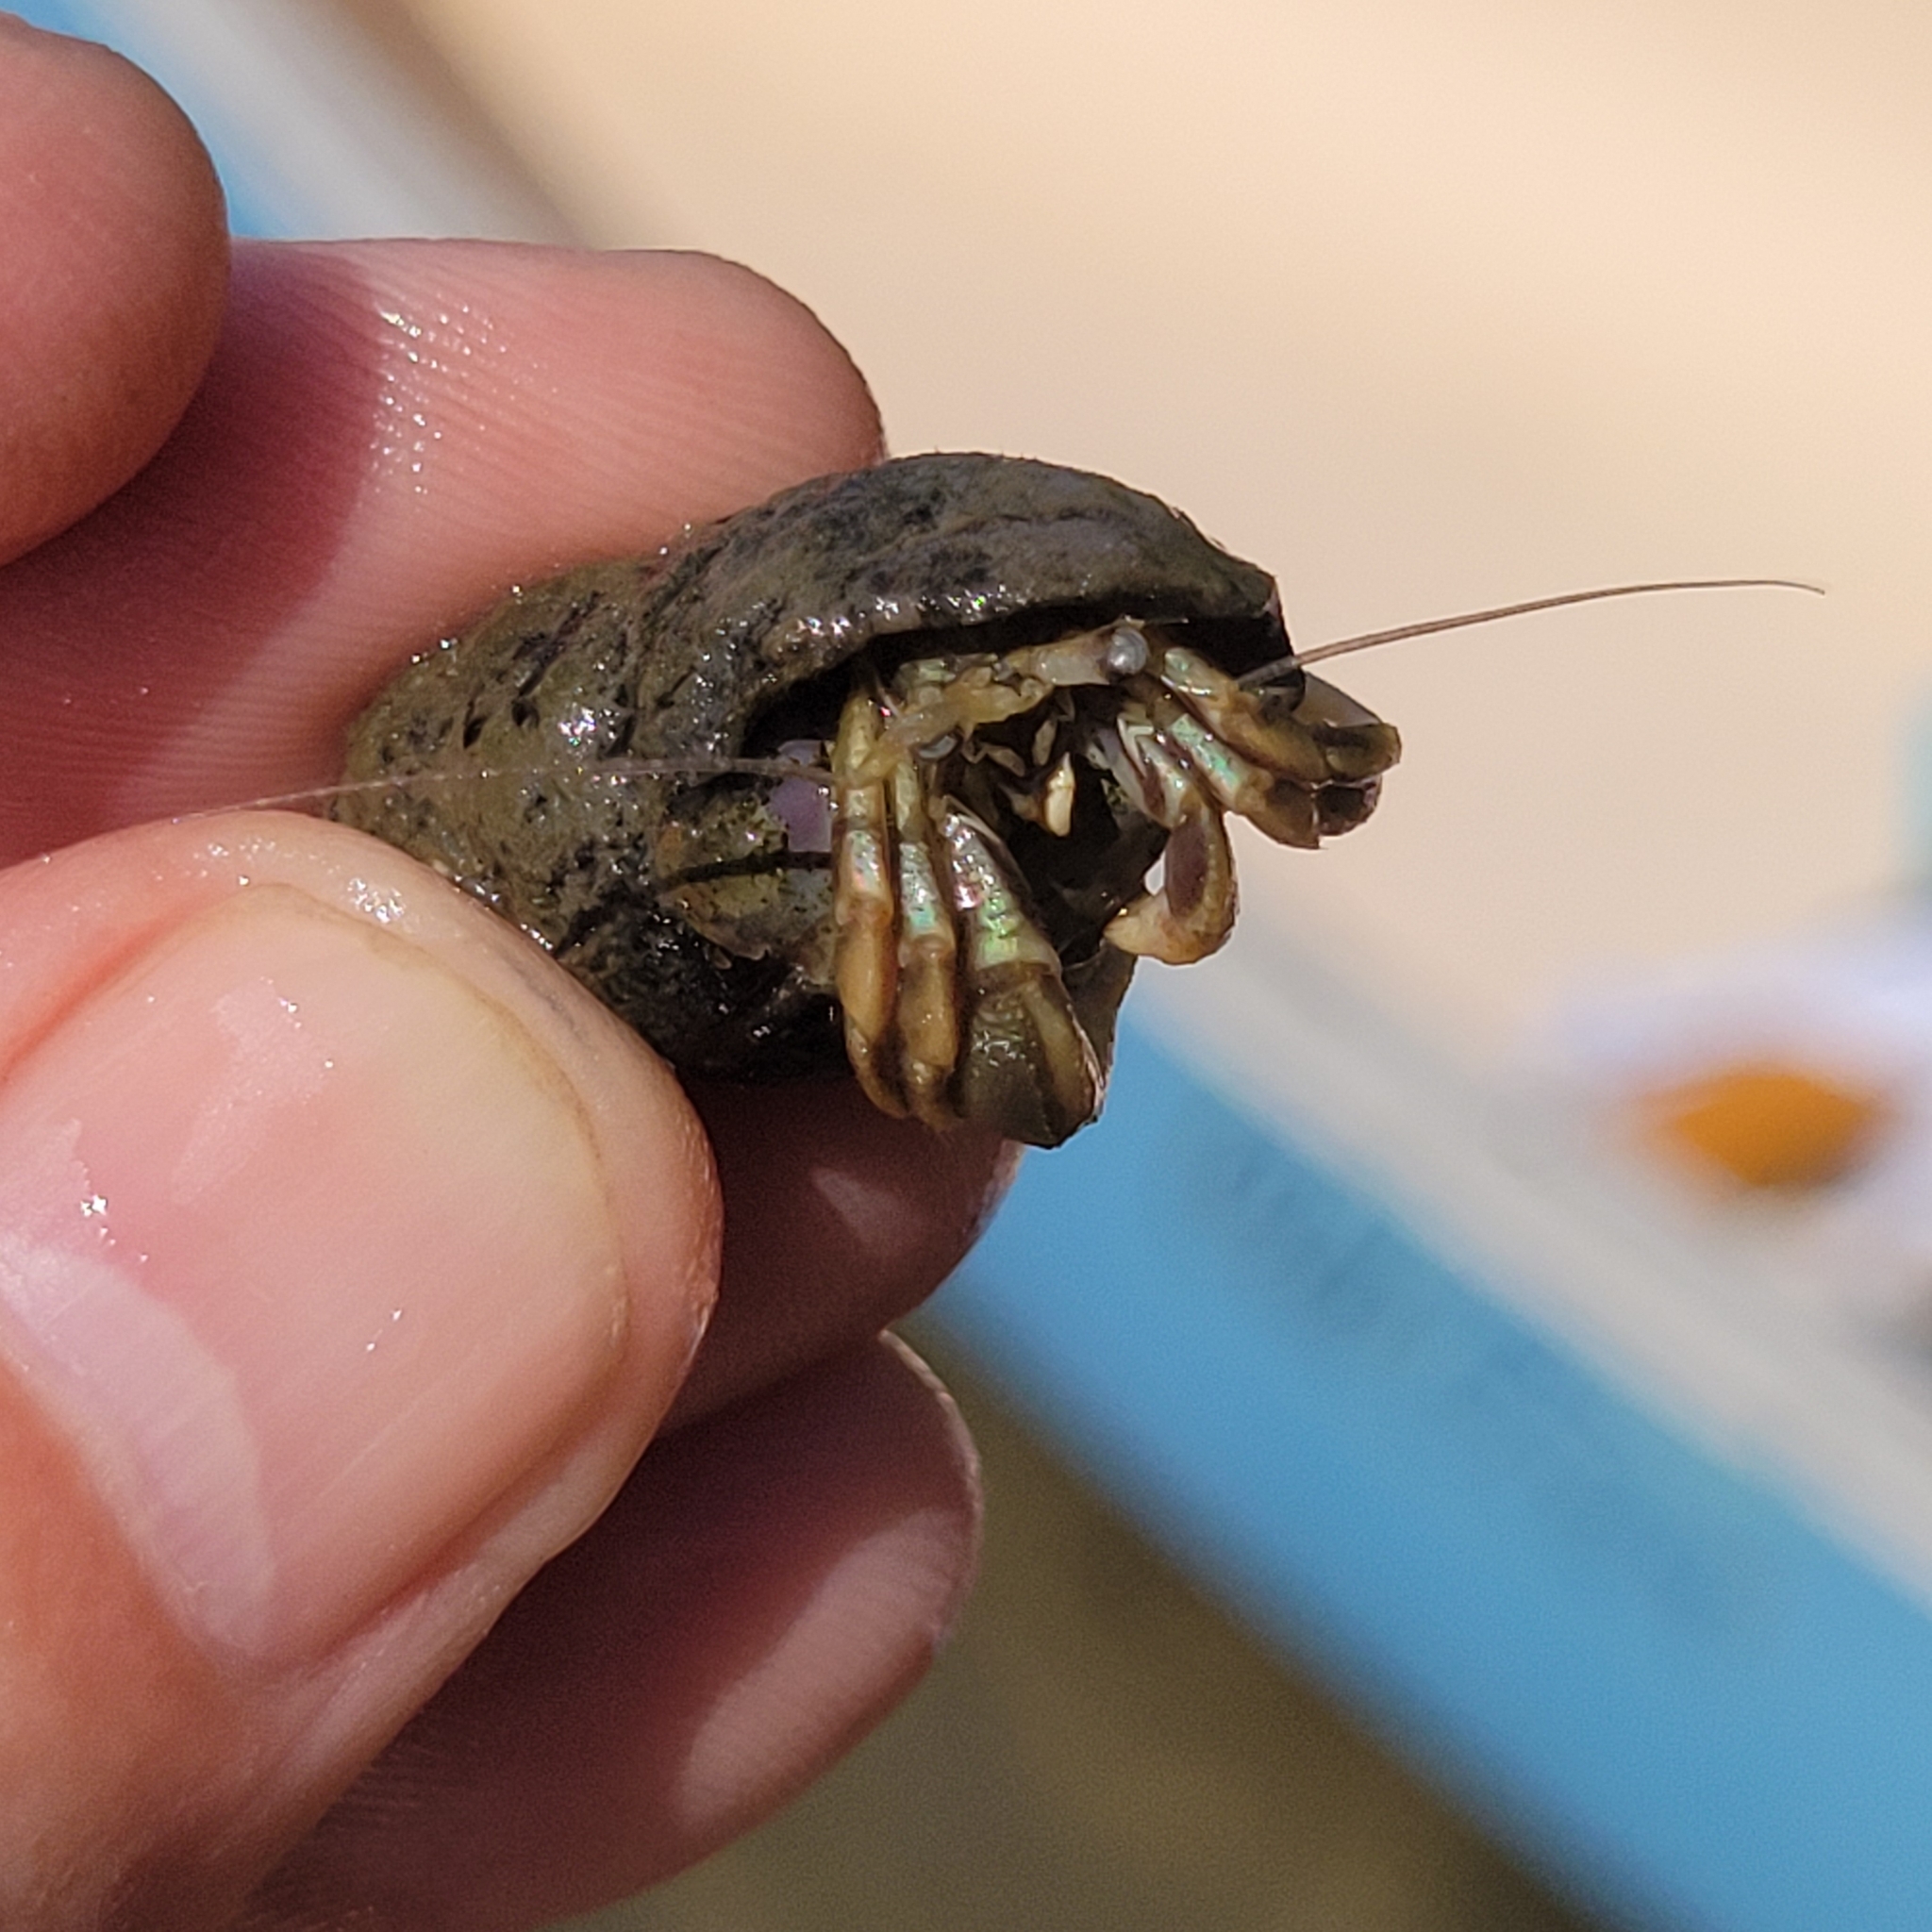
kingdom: Animalia
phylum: Arthropoda
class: Malacostraca
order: Decapoda
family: Paguridae
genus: Pagurus
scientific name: Pagurus longicarpus
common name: Long-armed hermit crab
